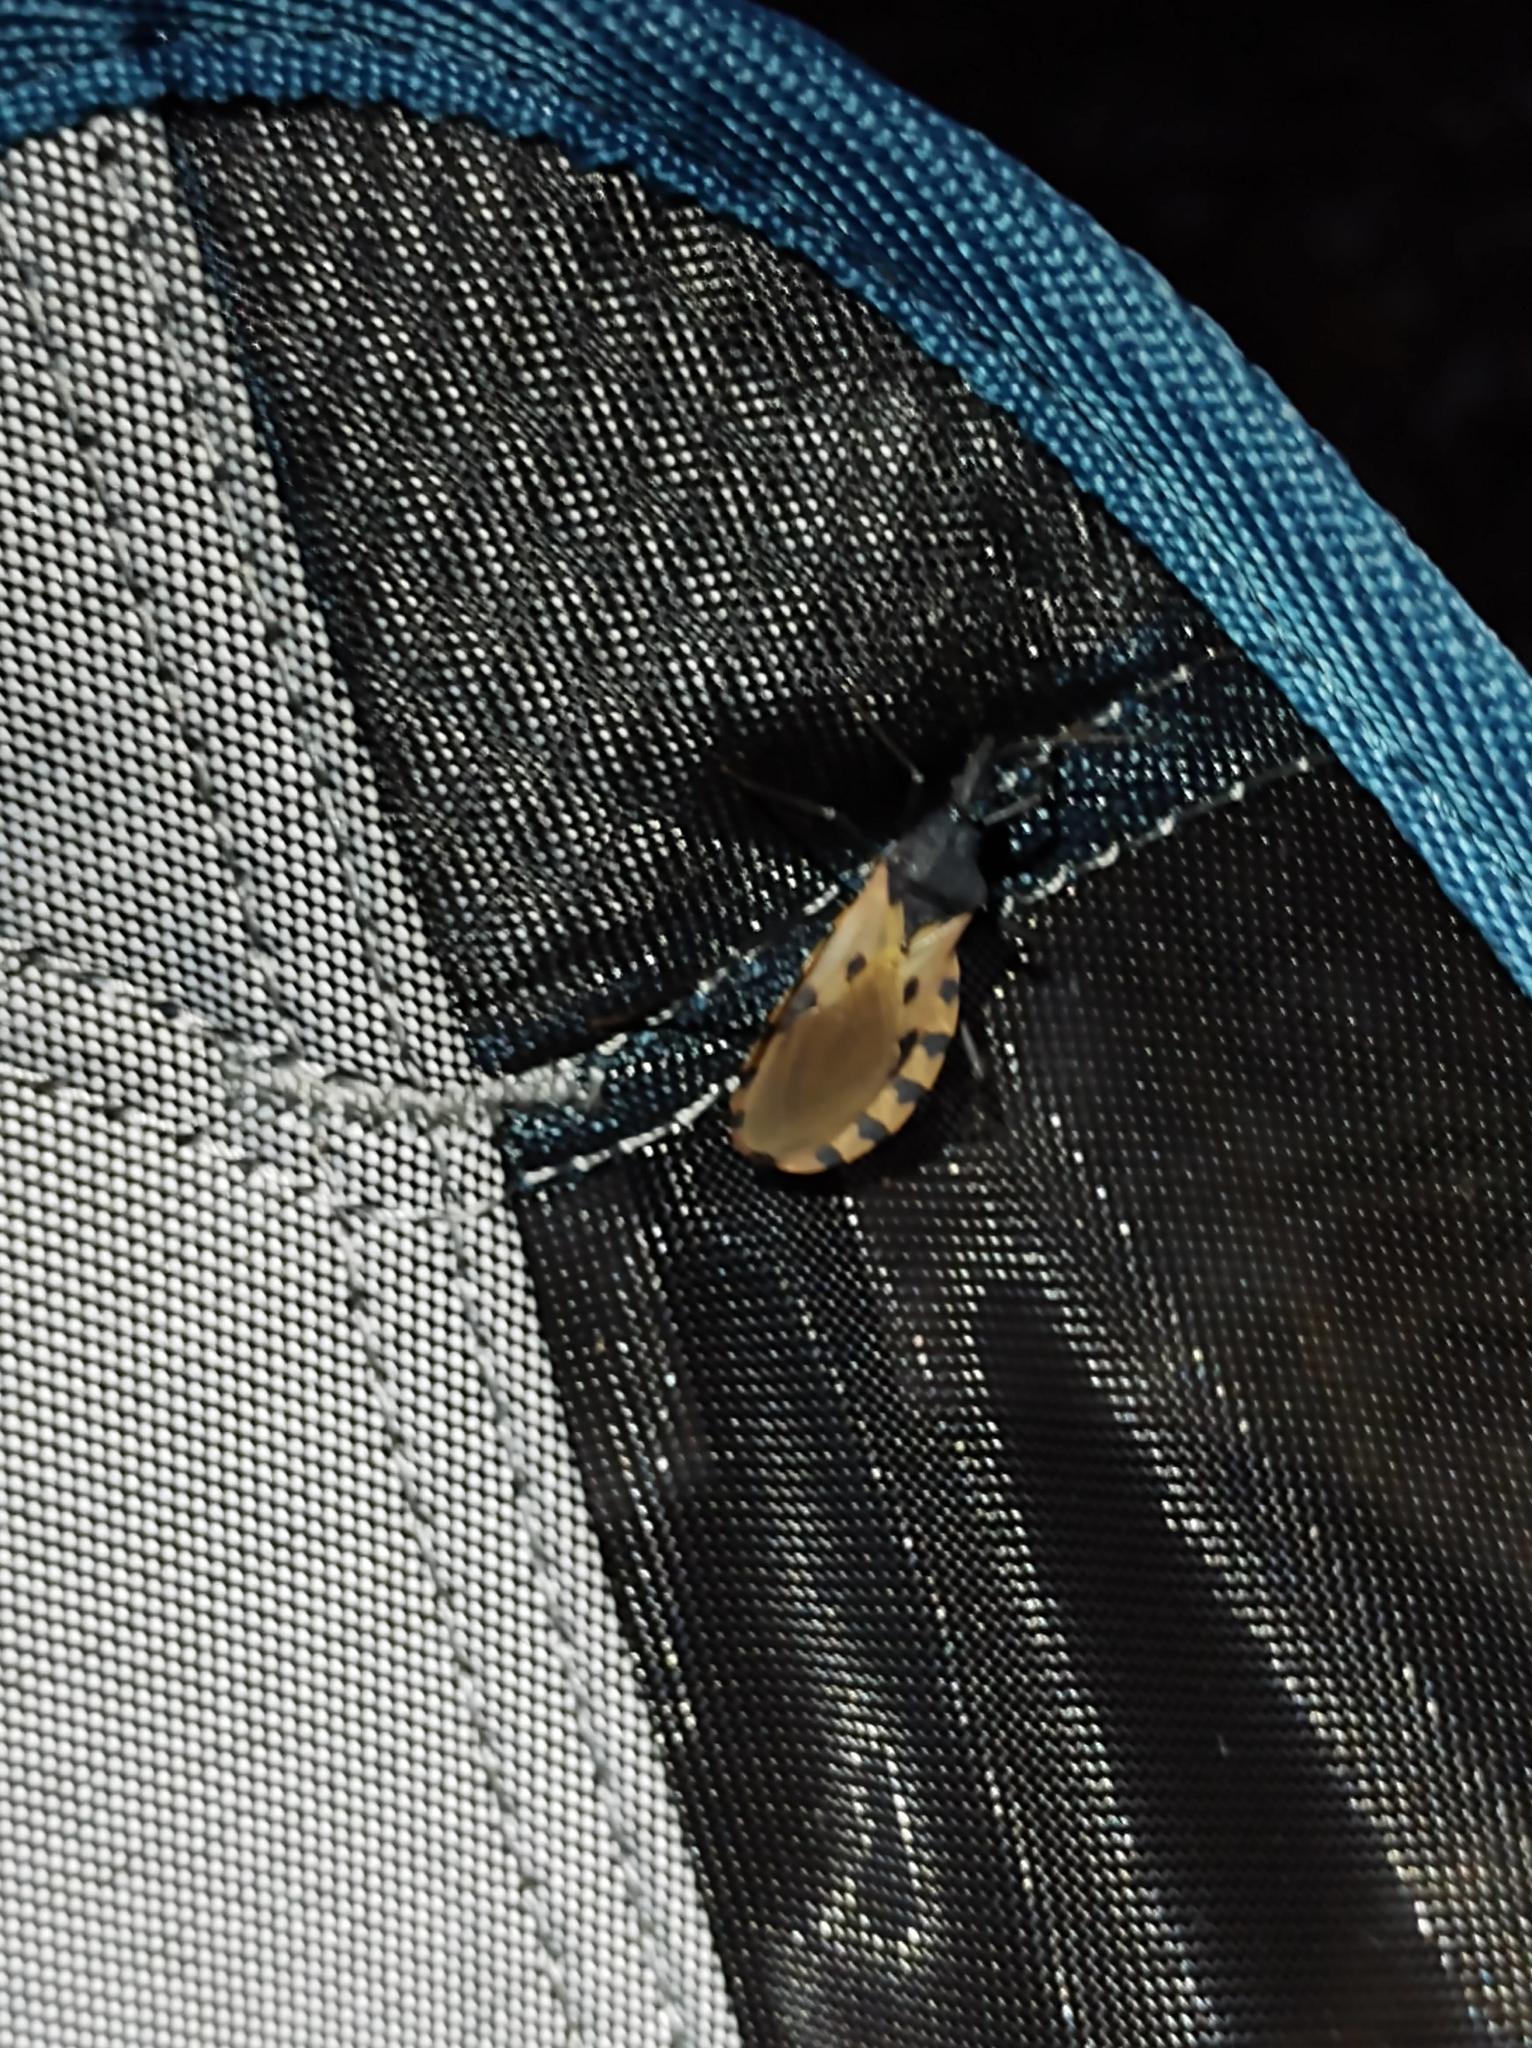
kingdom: Animalia
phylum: Arthropoda
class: Insecta
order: Hemiptera
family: Reduviidae
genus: Meccus
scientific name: Meccus dimidiatus
